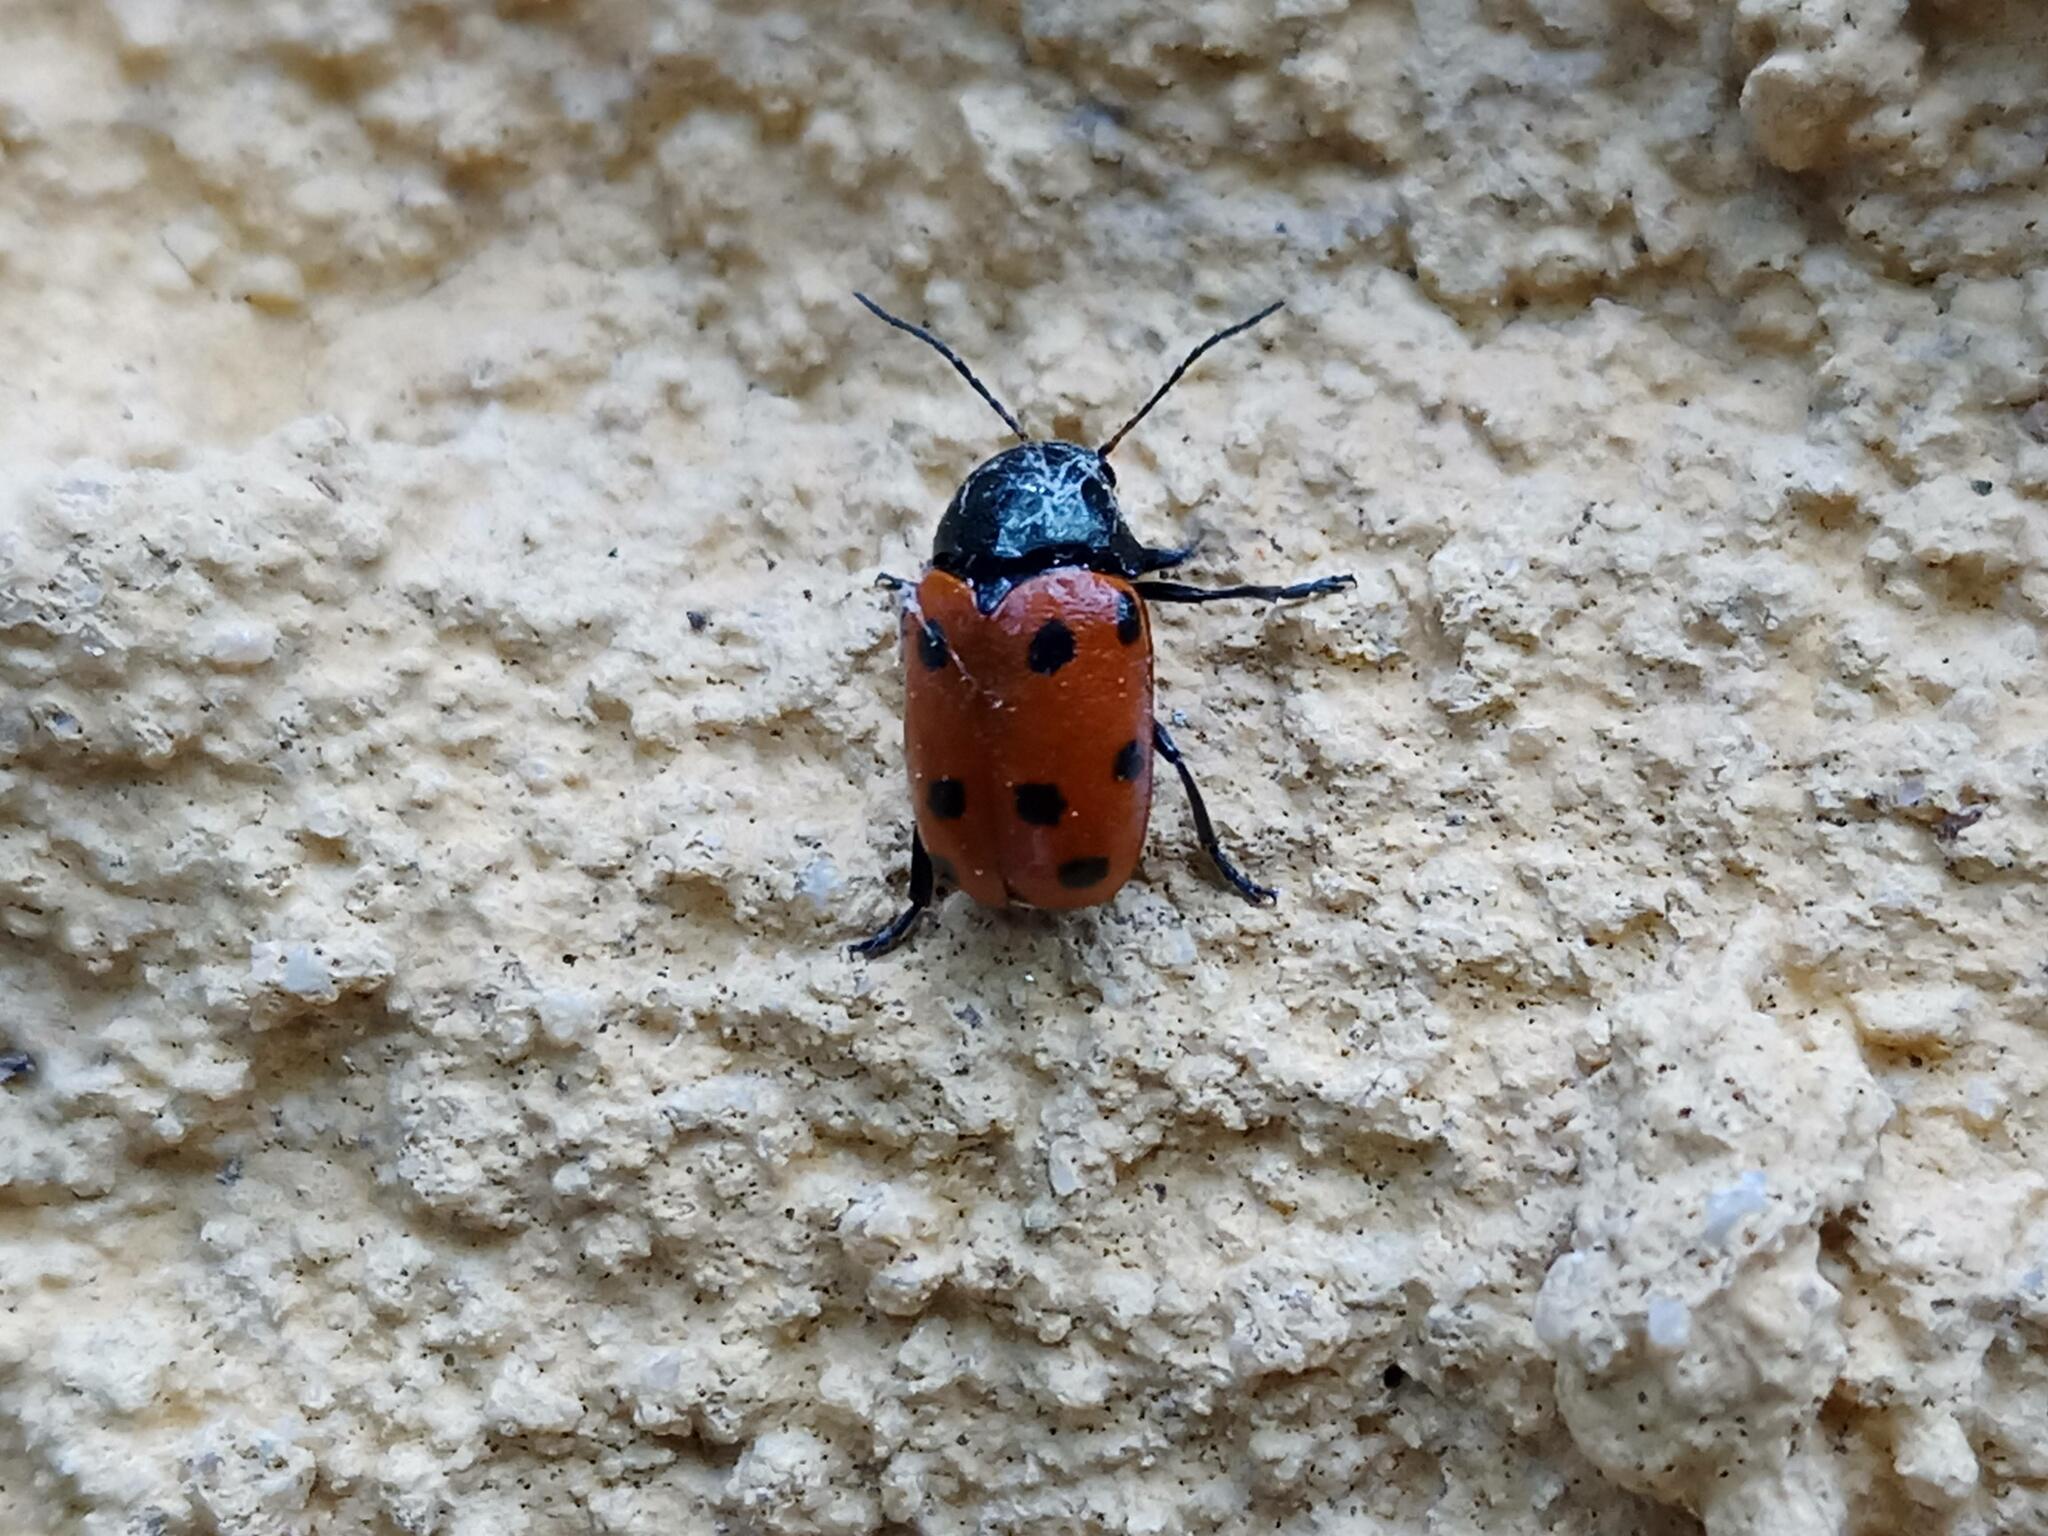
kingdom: Animalia
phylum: Arthropoda
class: Insecta
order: Coleoptera
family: Chrysomelidae
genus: Cryptocephalus
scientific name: Cryptocephalus primarius
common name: Rock-rose pot beetle
